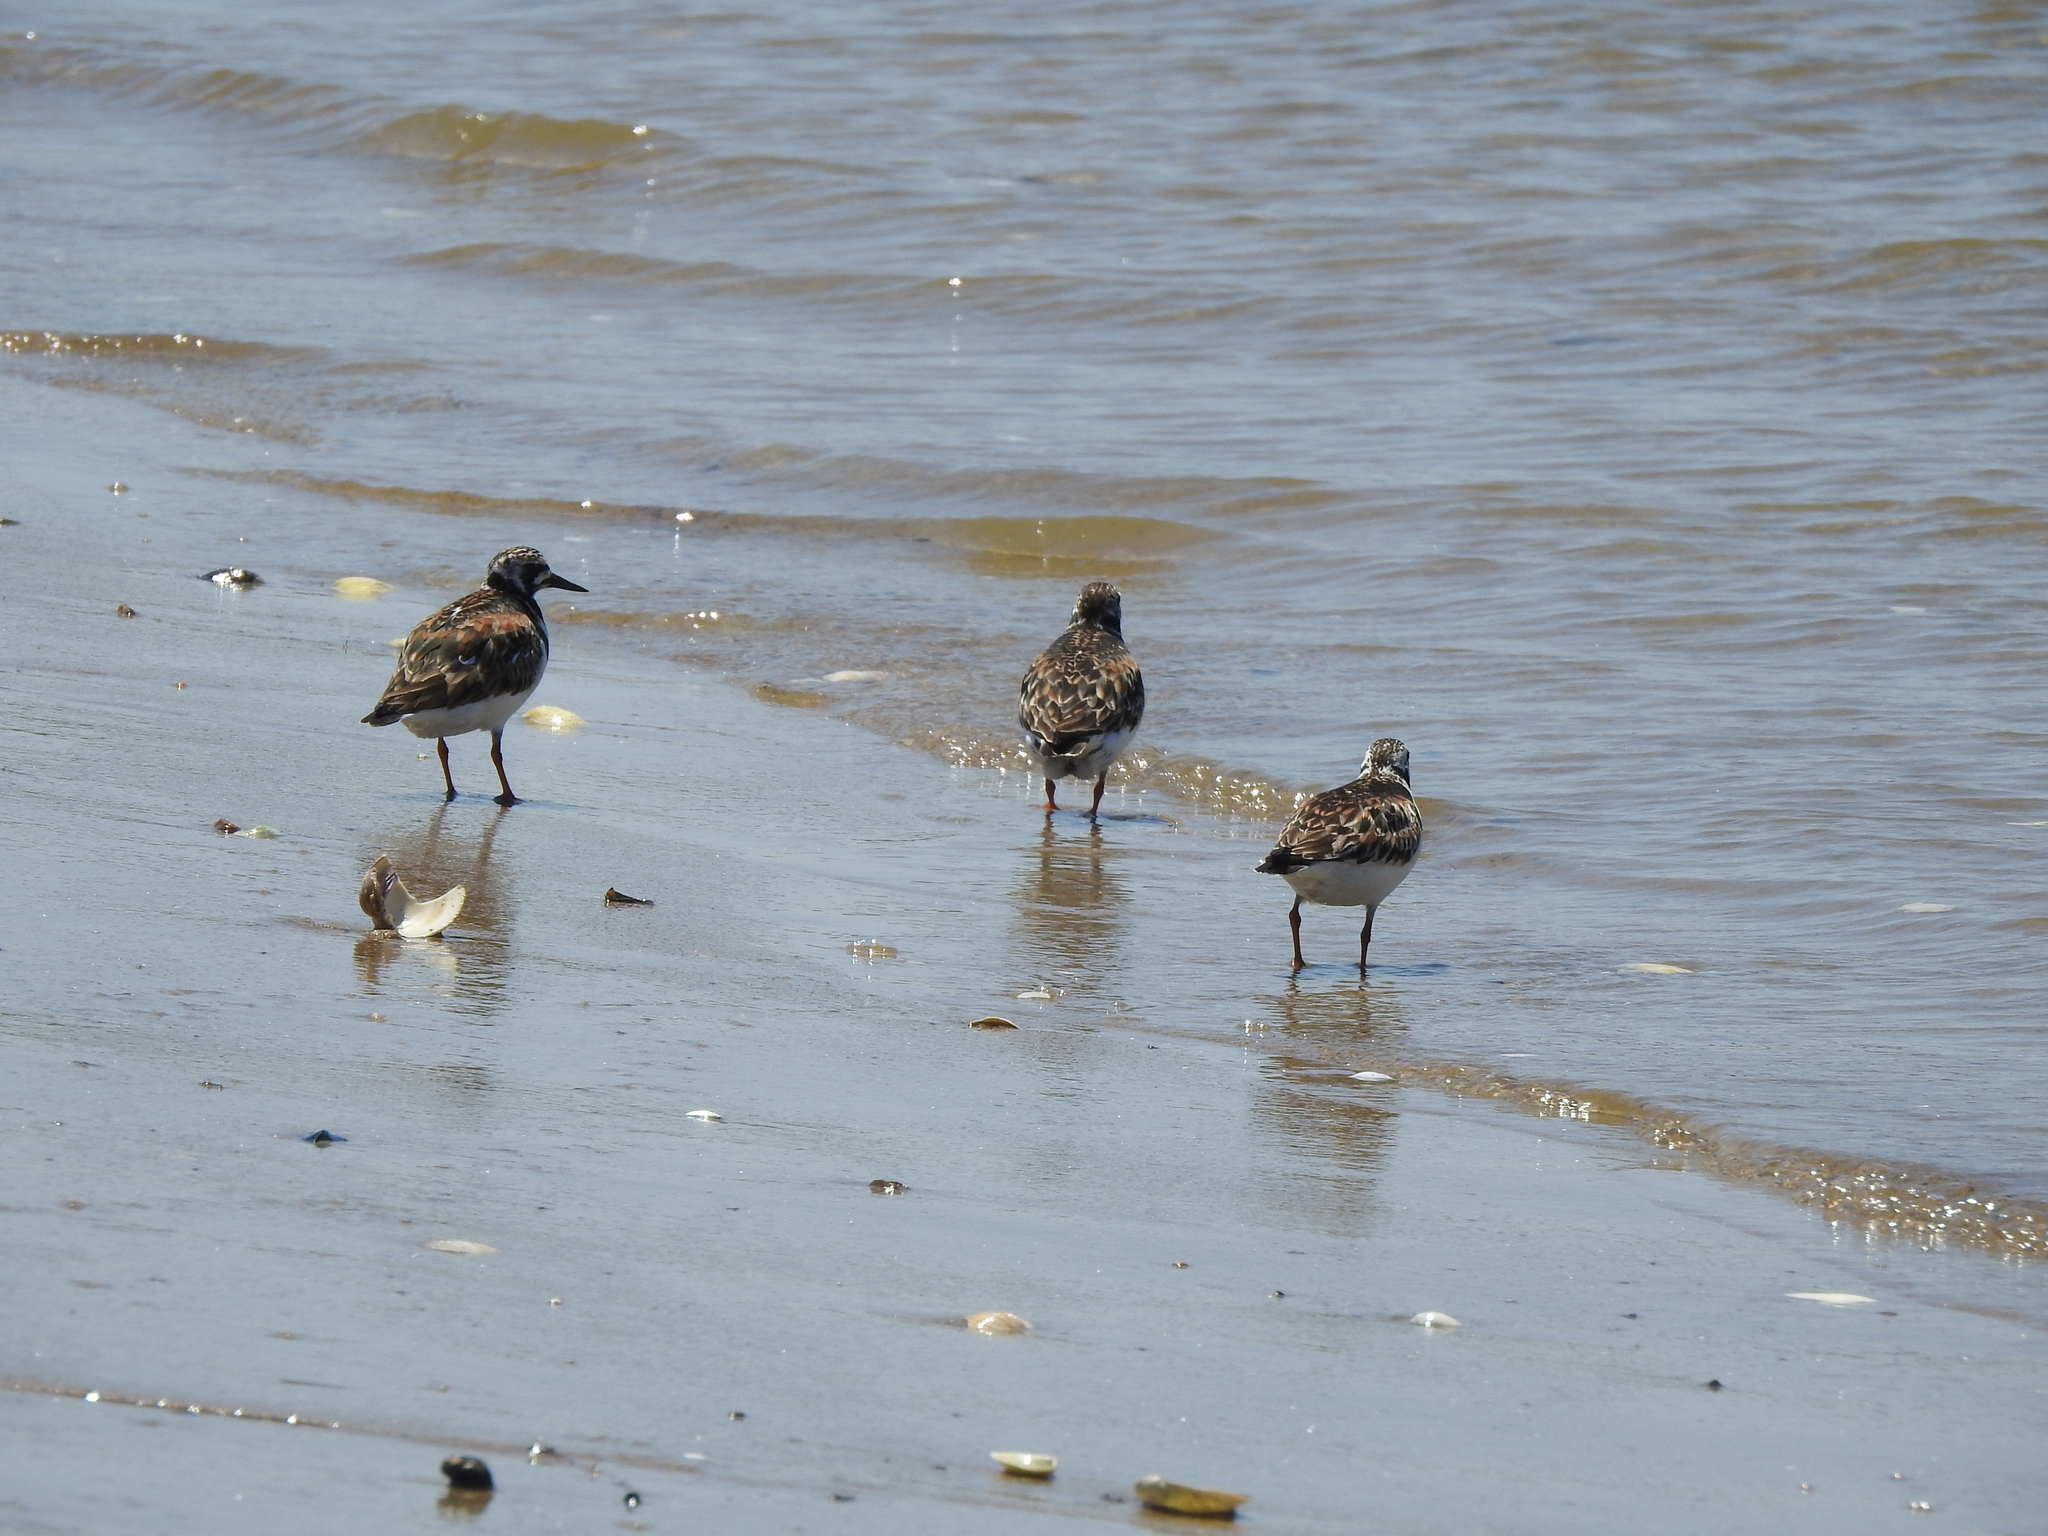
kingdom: Animalia
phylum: Chordata
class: Aves
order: Charadriiformes
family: Scolopacidae
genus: Arenaria
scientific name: Arenaria interpres
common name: Ruddy turnstone
